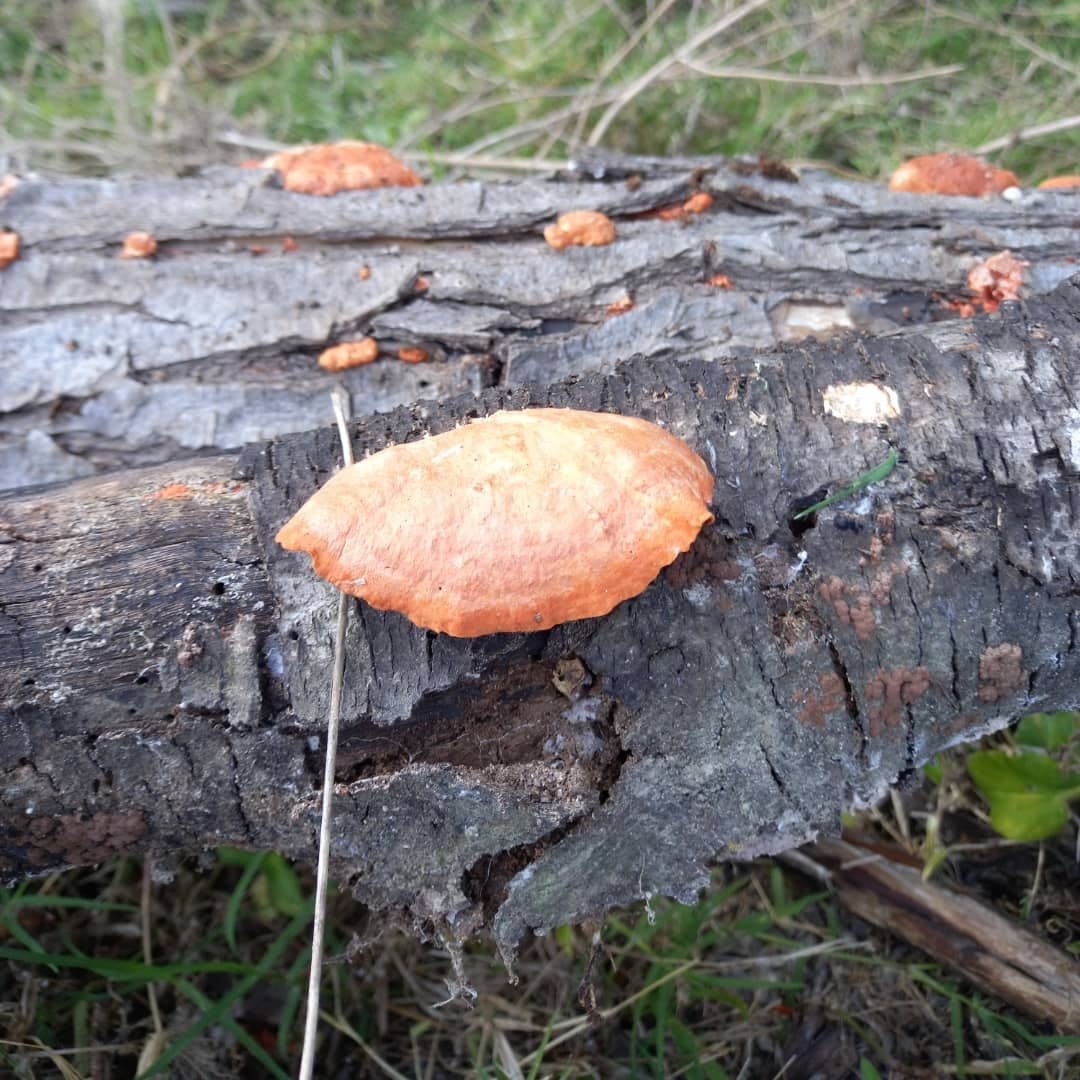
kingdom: Fungi
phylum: Basidiomycota
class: Agaricomycetes
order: Polyporales
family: Polyporaceae
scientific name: Polyporaceae
